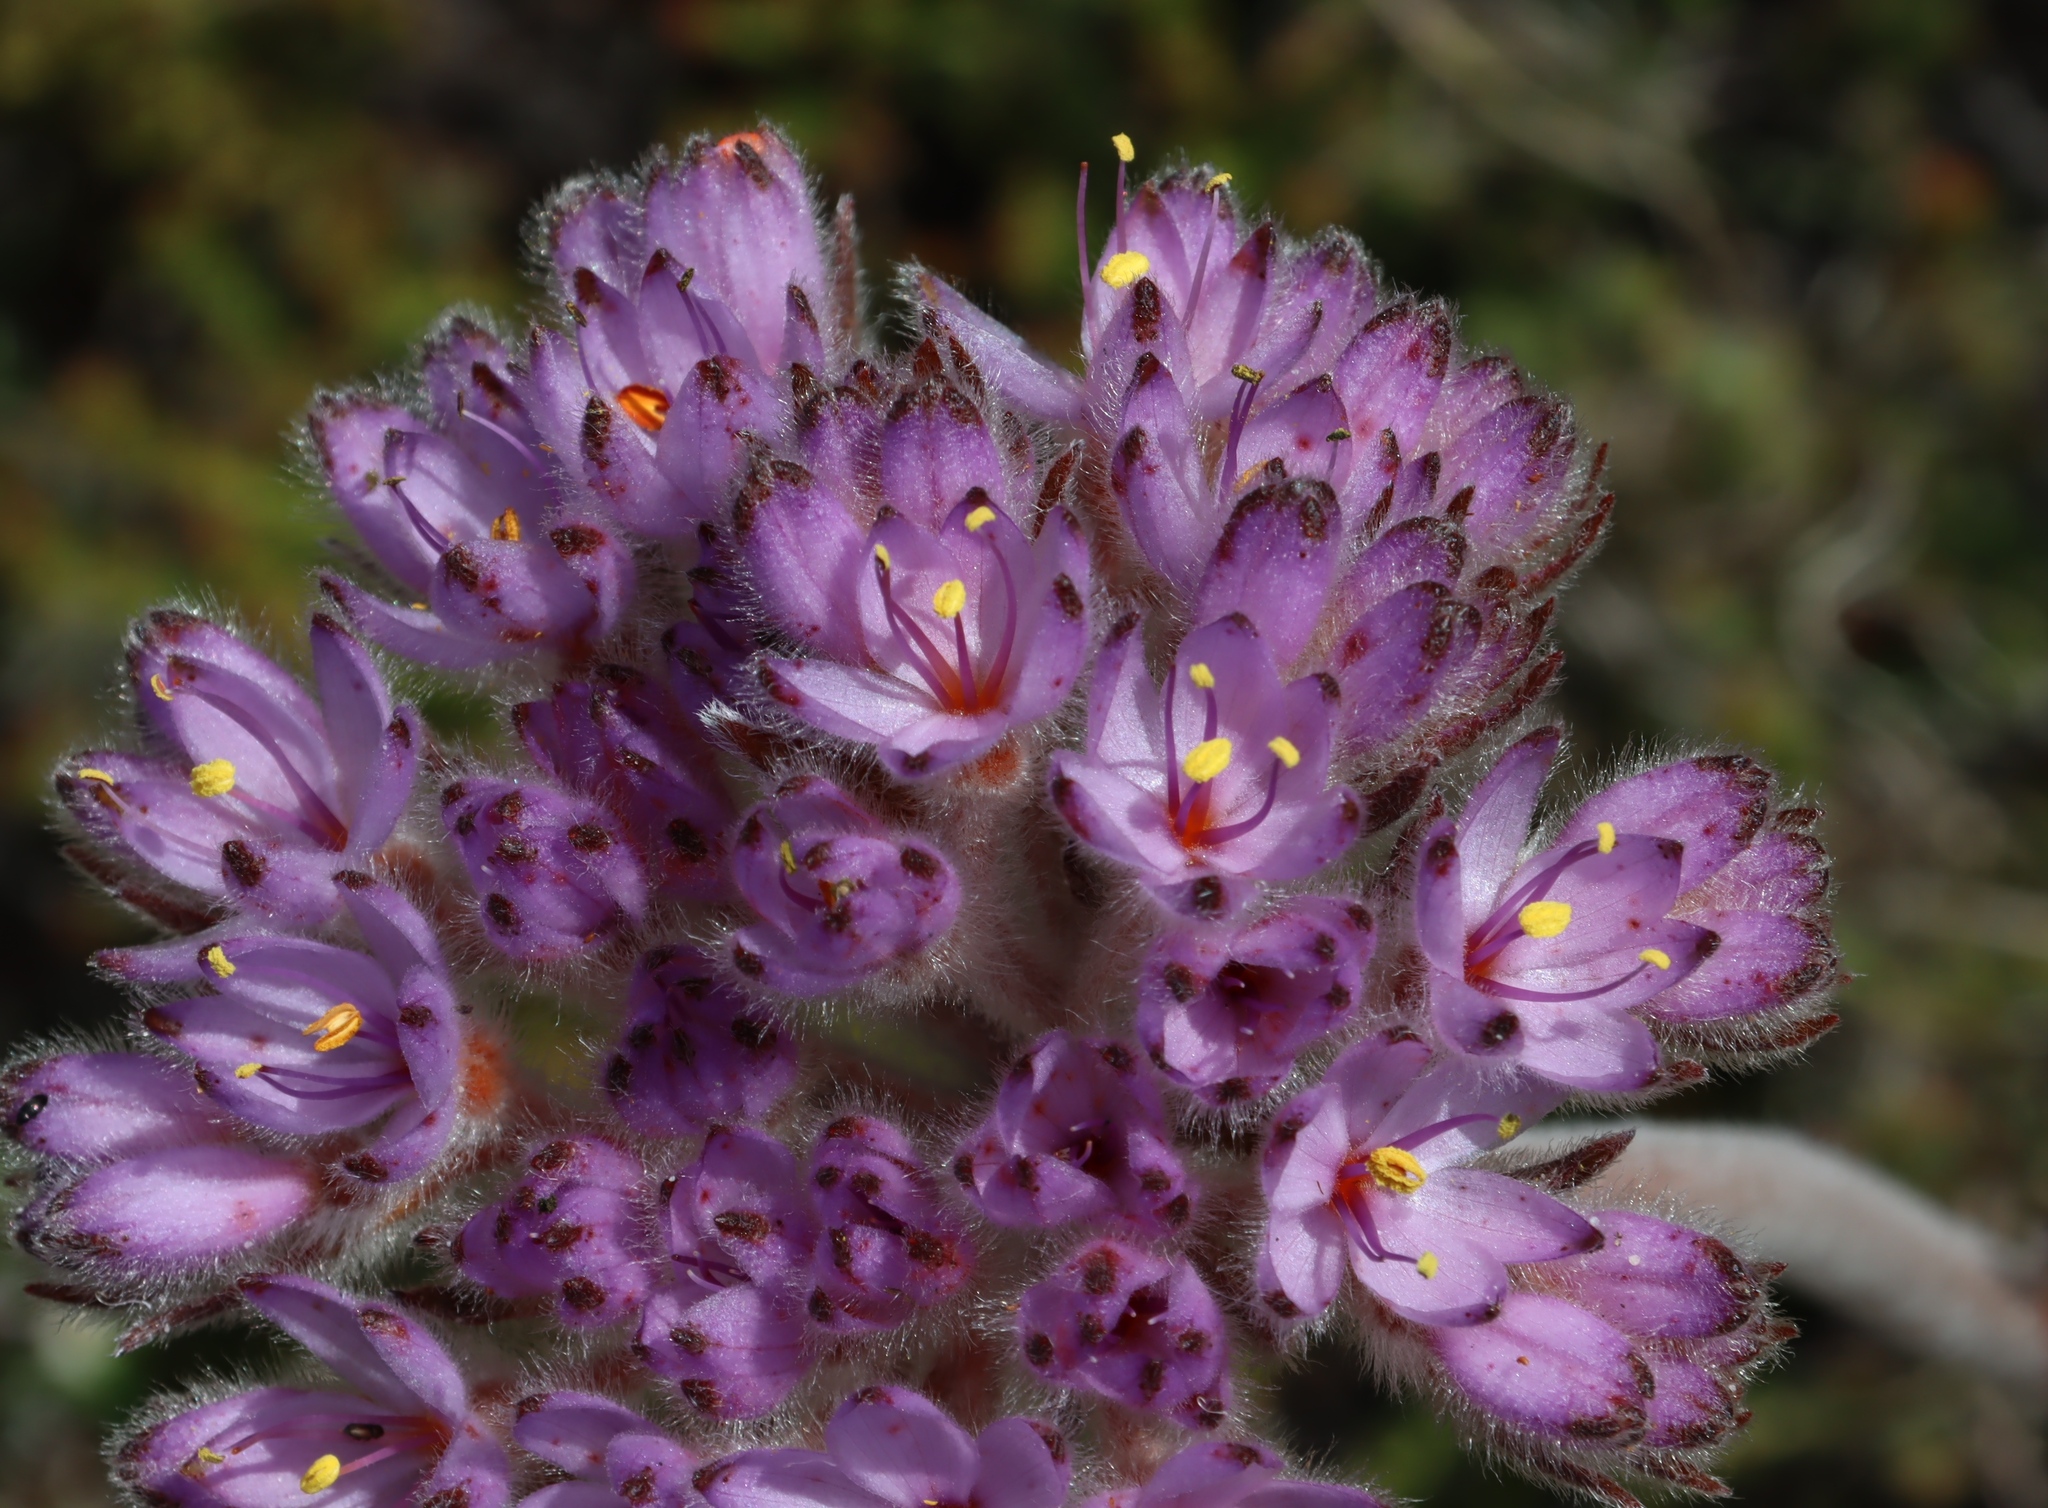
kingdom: Plantae
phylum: Tracheophyta
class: Liliopsida
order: Commelinales
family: Haemodoraceae
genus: Dilatris
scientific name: Dilatris corymbosa
